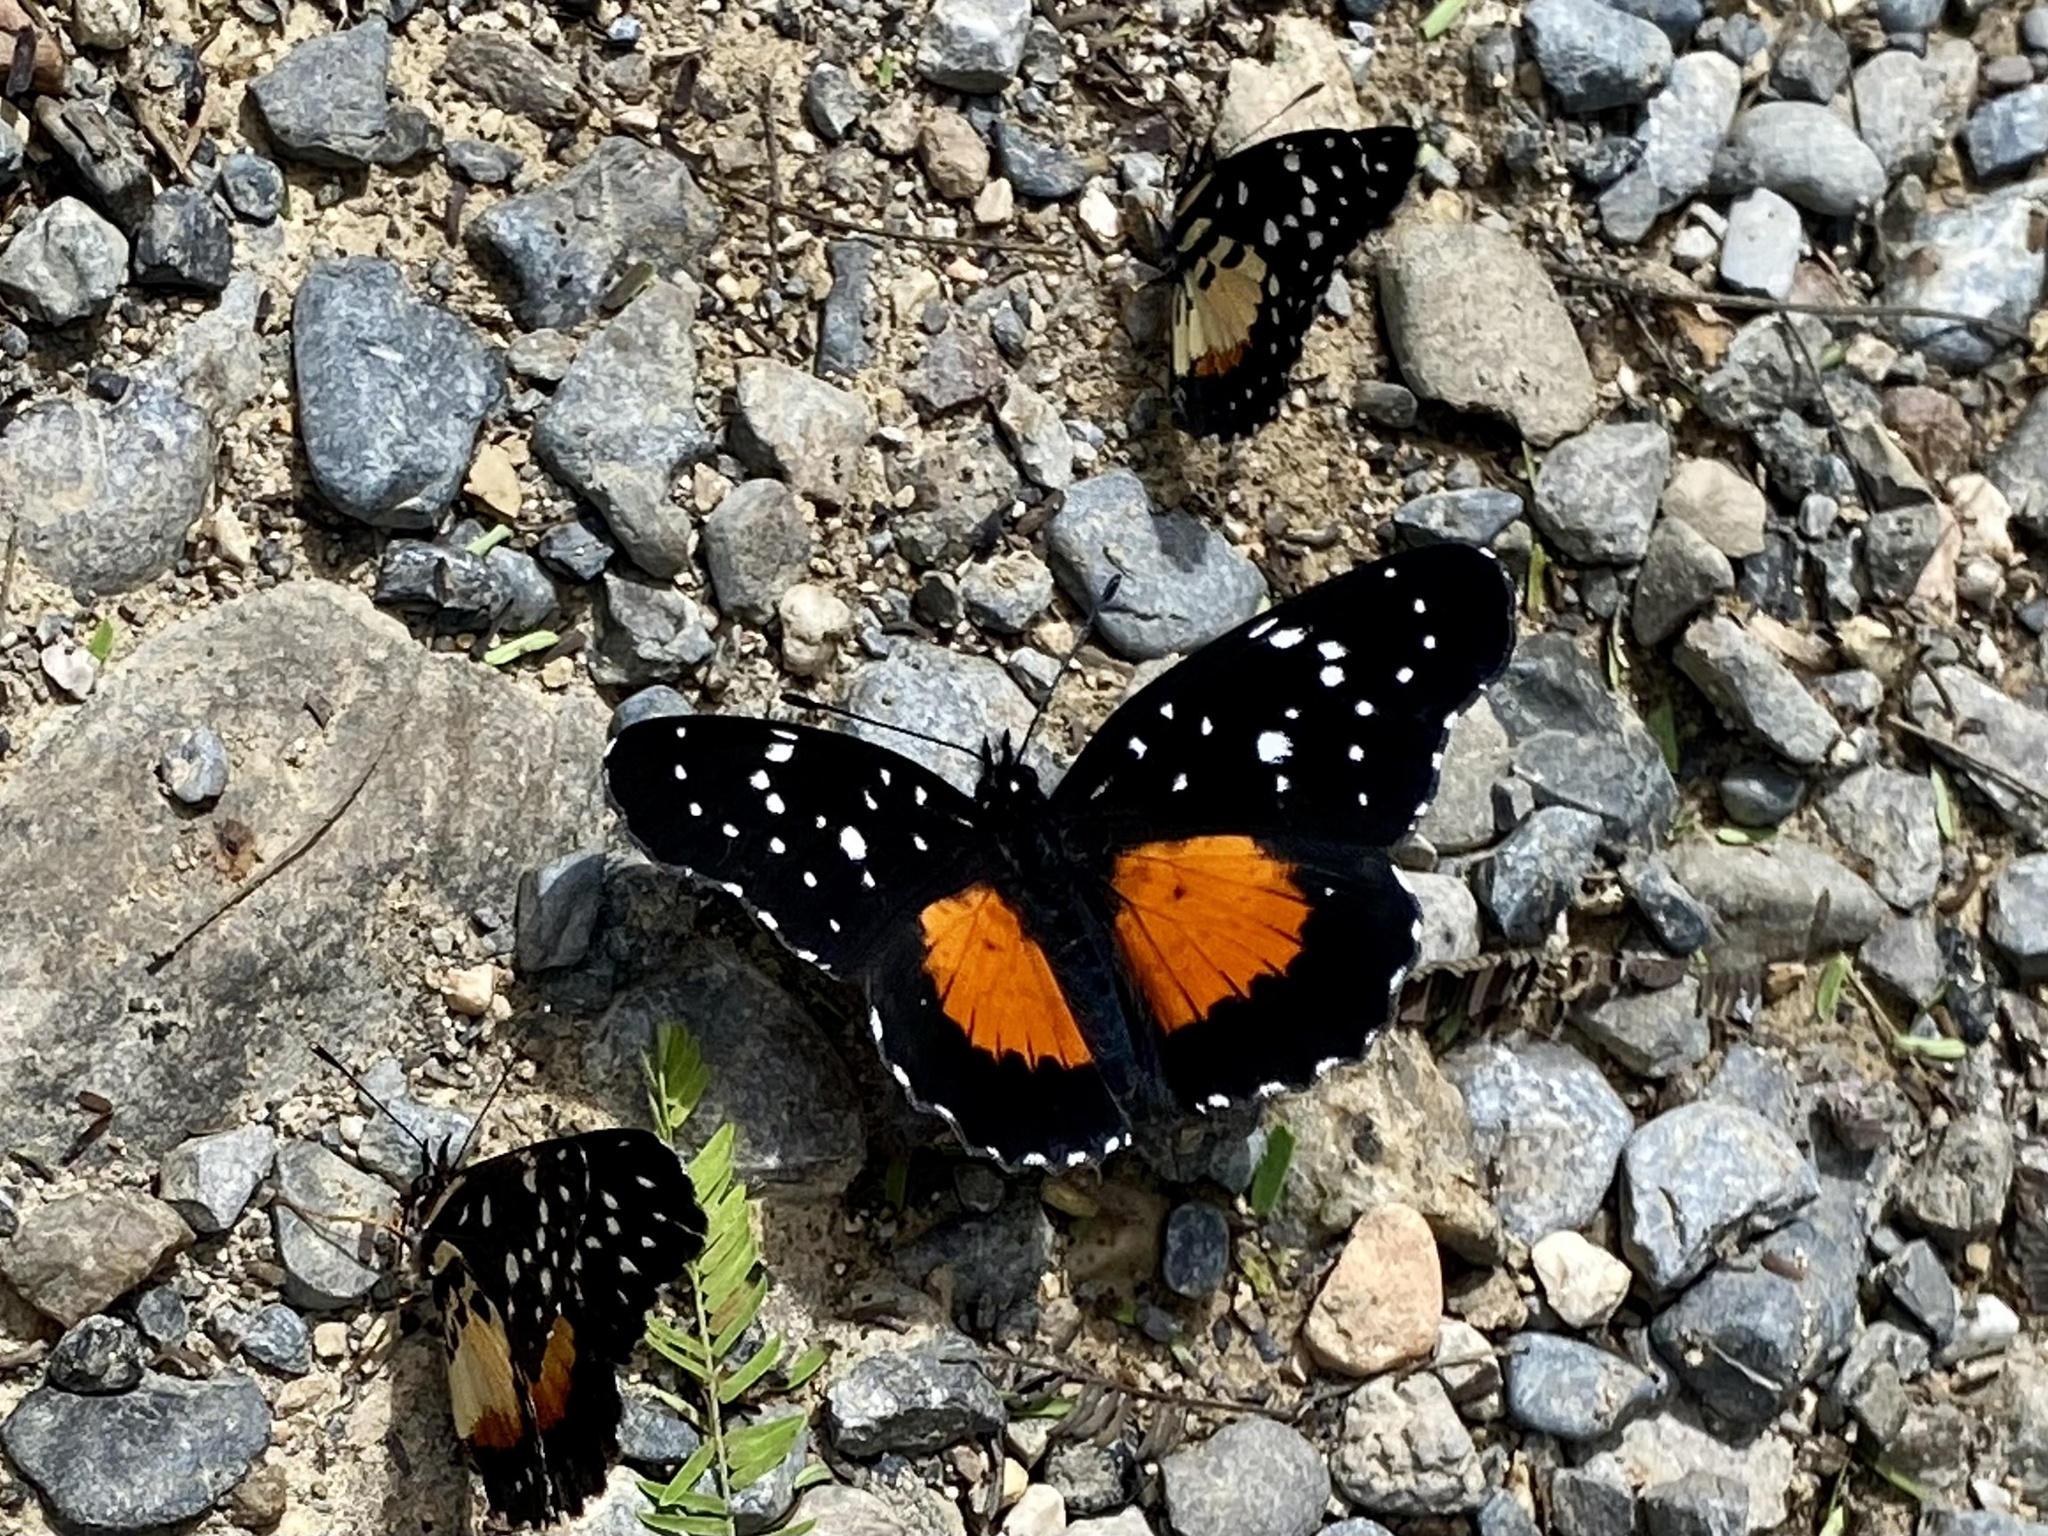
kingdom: Animalia
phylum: Arthropoda
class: Insecta
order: Lepidoptera
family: Nymphalidae
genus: Chlosyne
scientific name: Chlosyne janais
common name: Crimson patch
